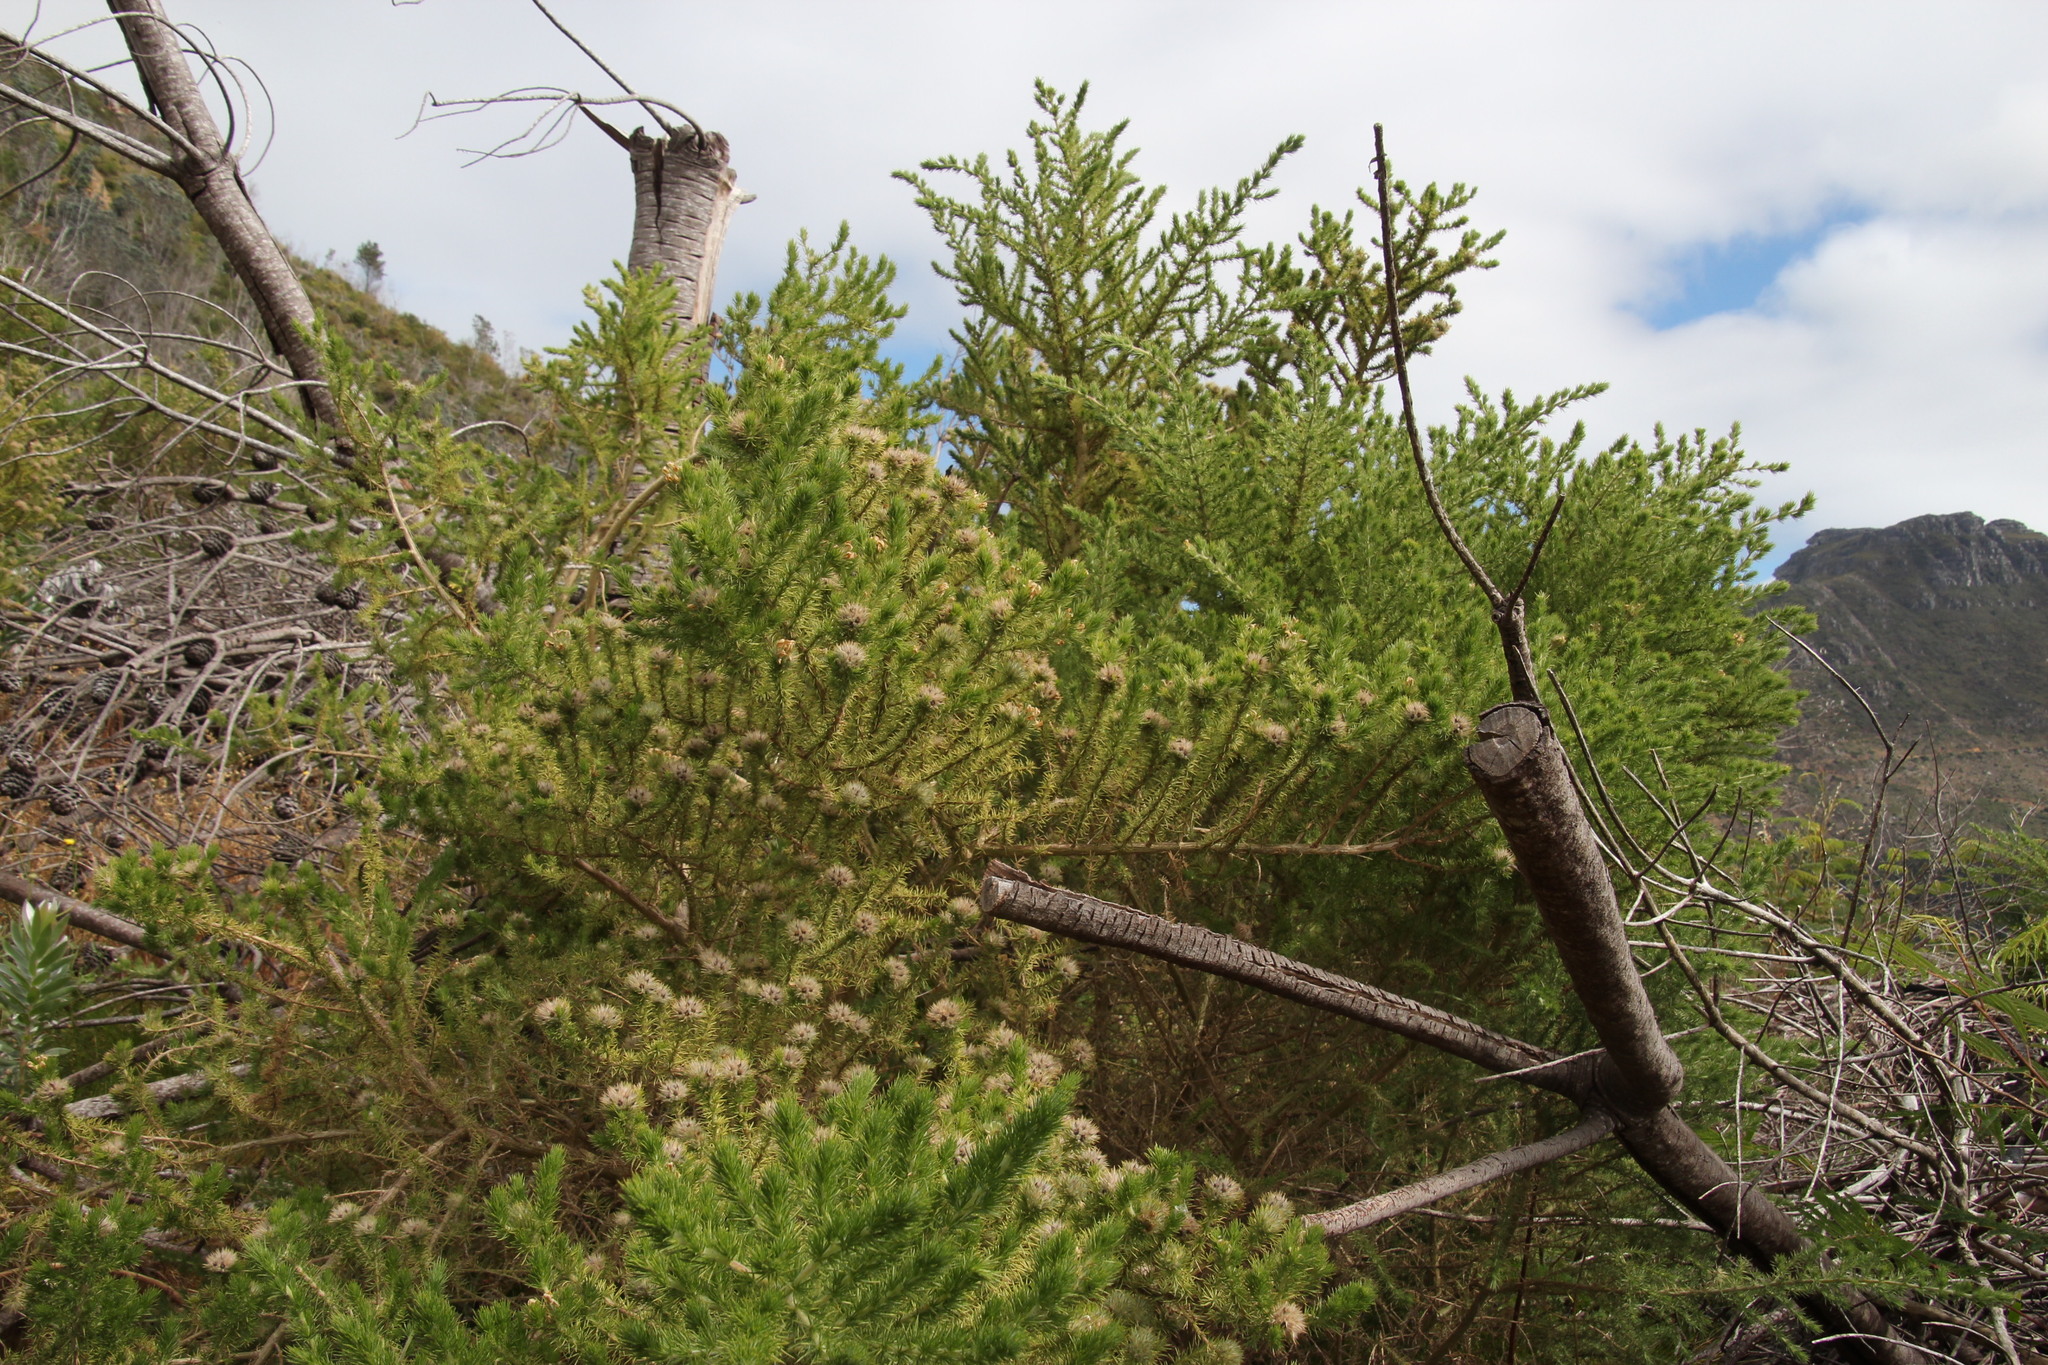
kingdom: Plantae
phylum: Tracheophyta
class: Magnoliopsida
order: Fabales
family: Fabaceae
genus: Aspalathus
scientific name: Aspalathus chenopoda
